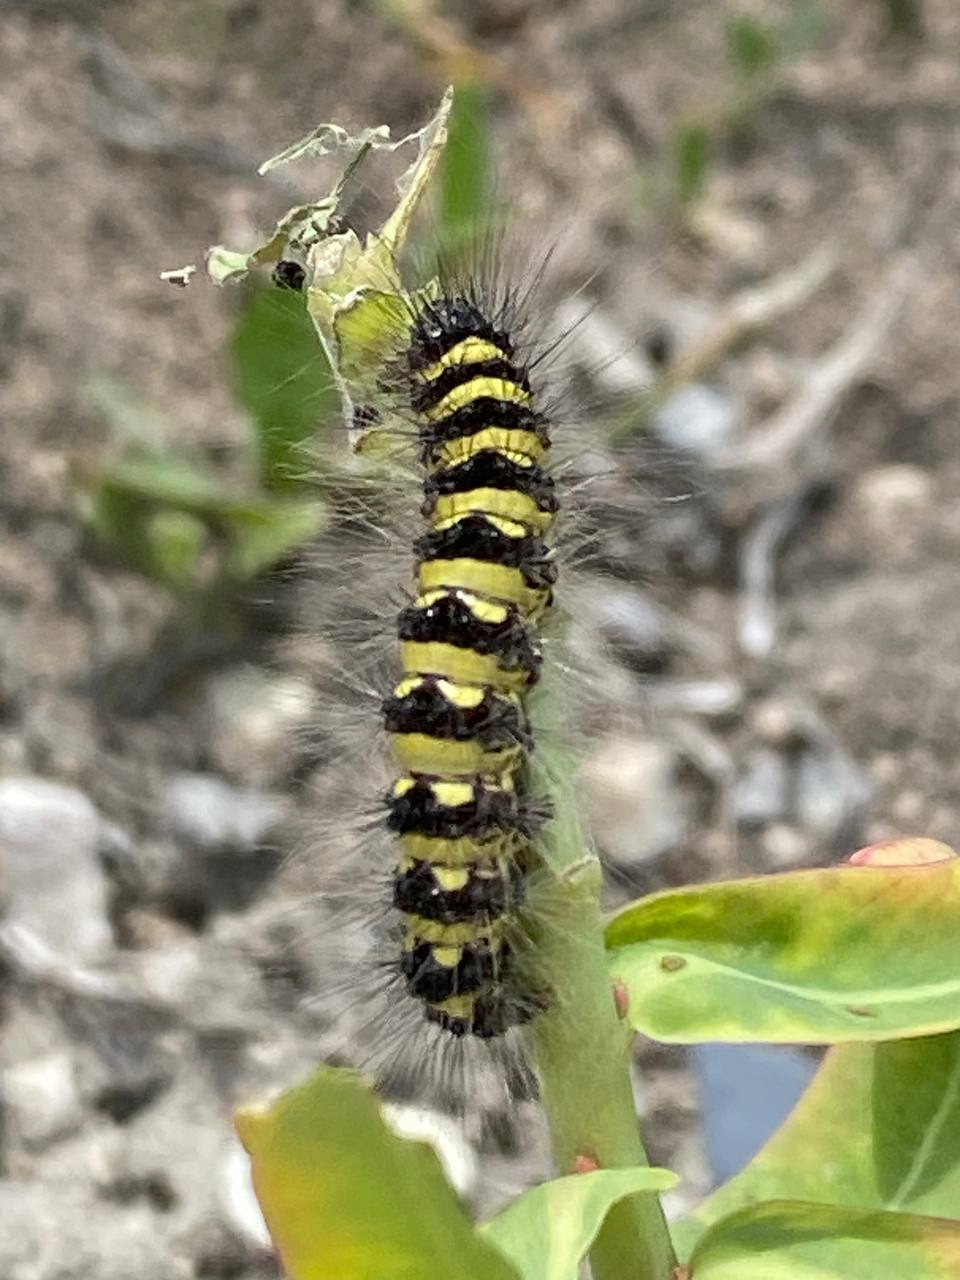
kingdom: Animalia
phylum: Arthropoda
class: Insecta
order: Lepidoptera
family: Noctuidae
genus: Acronicta
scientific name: Acronicta
